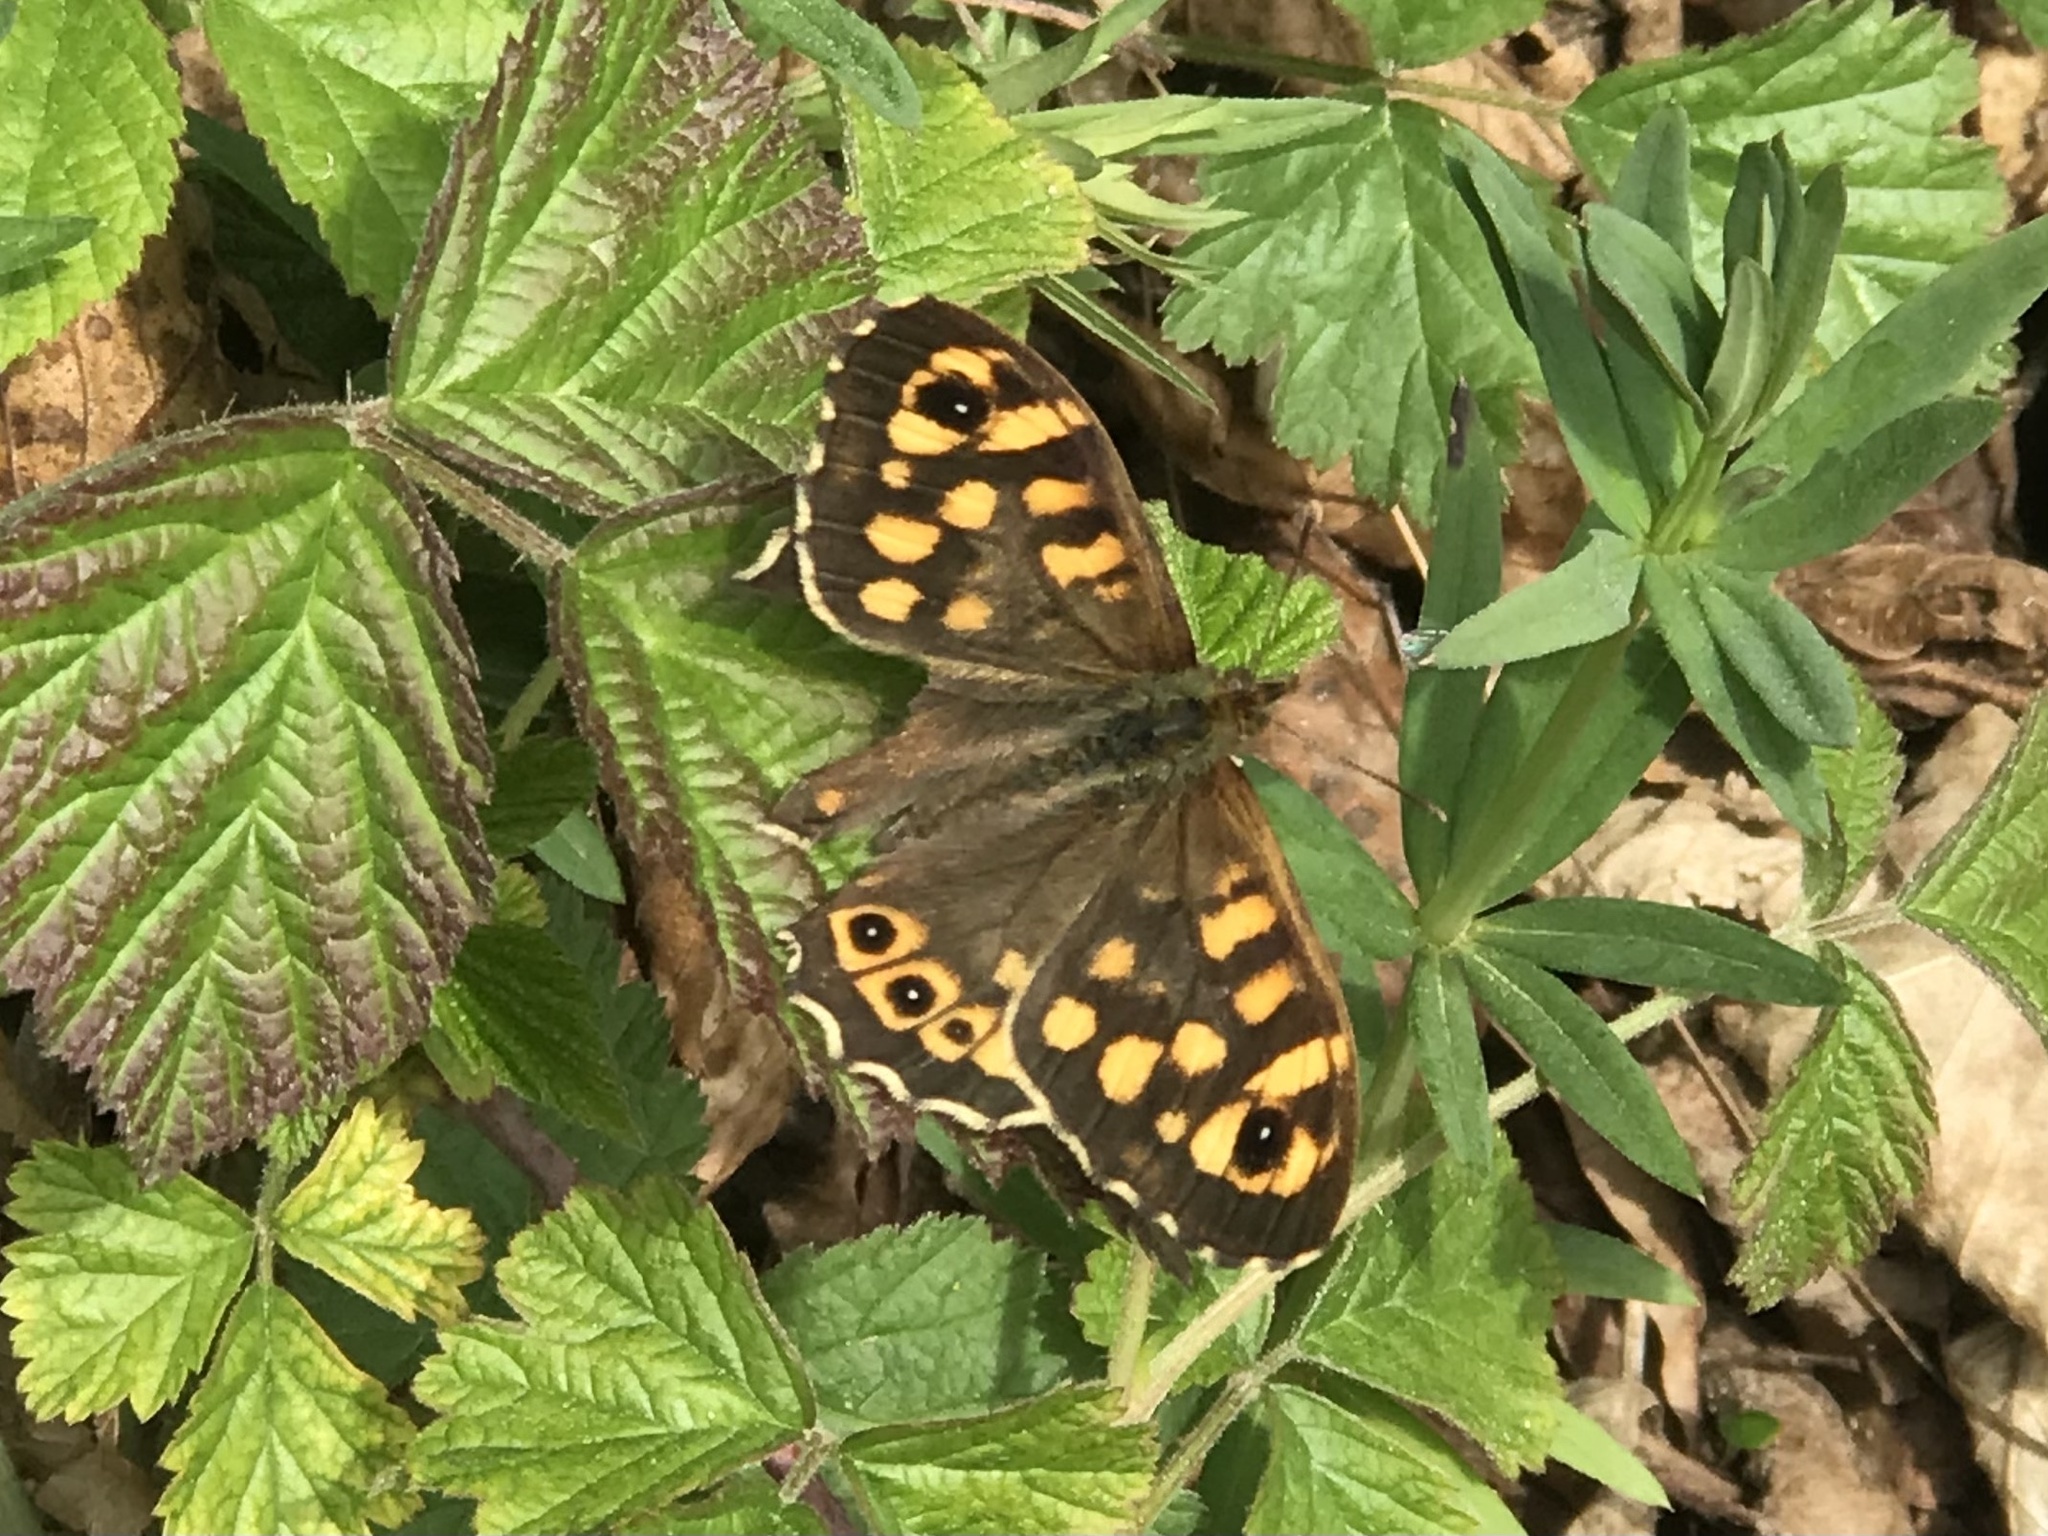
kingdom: Animalia
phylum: Arthropoda
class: Insecta
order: Lepidoptera
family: Nymphalidae
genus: Pararge
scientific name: Pararge aegeria
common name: Speckled wood
